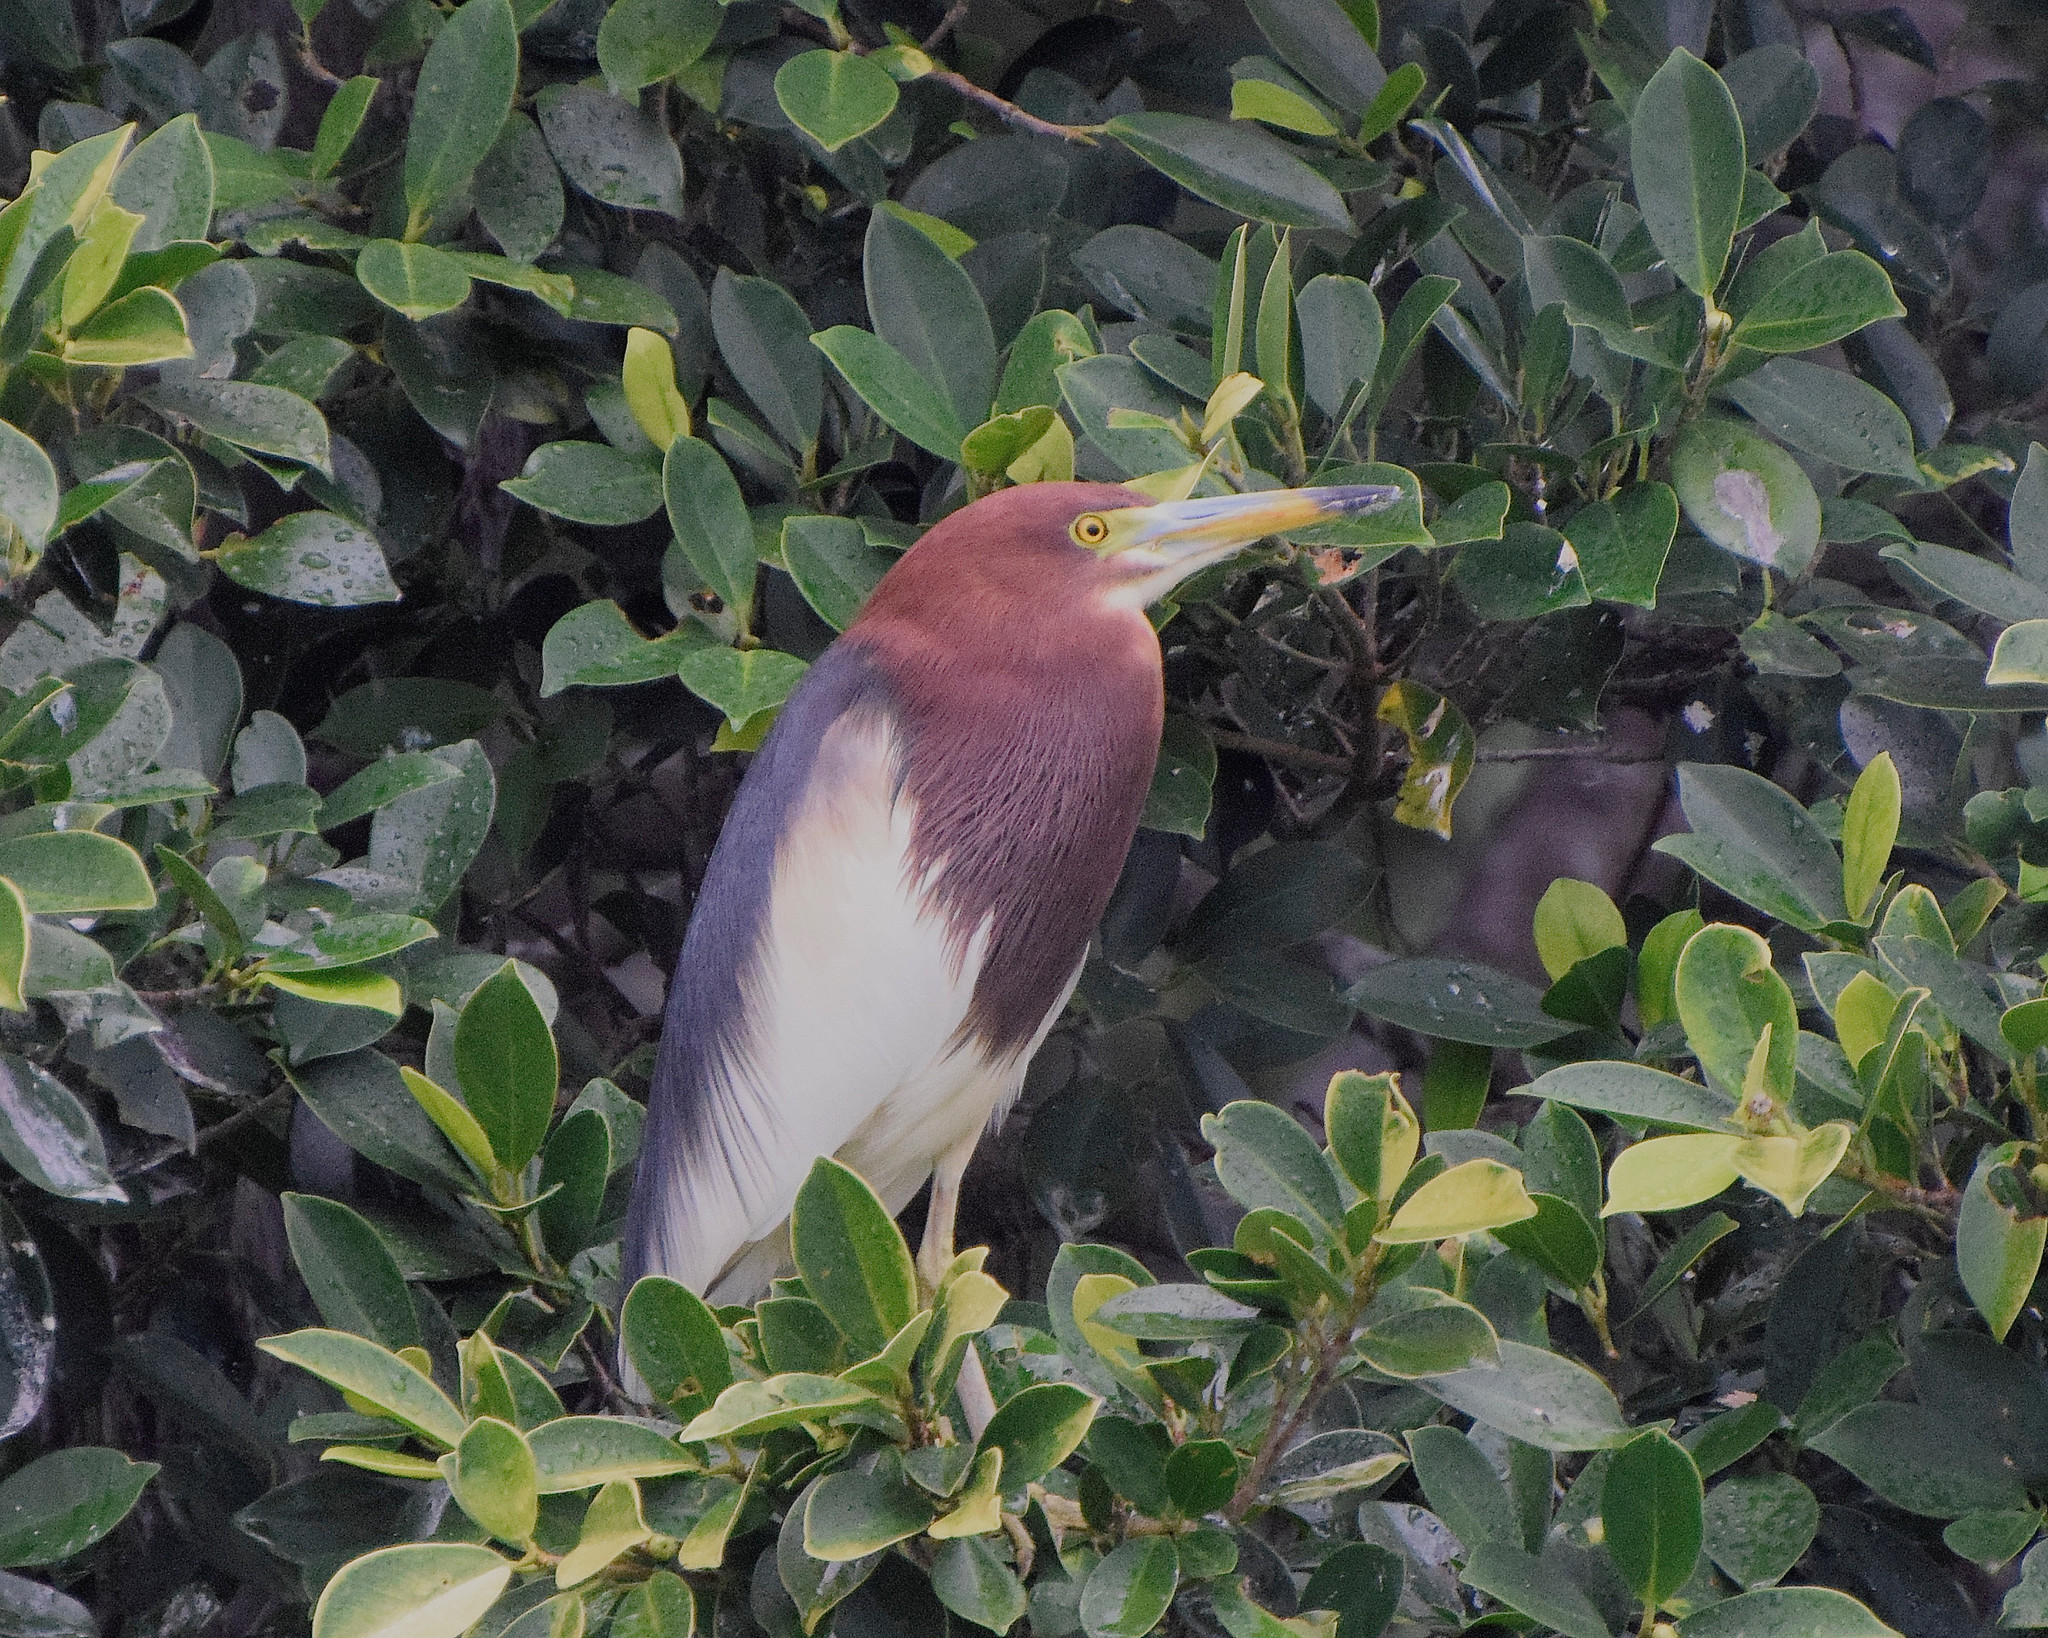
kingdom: Animalia
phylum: Chordata
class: Aves
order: Pelecaniformes
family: Ardeidae
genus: Ardeola
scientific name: Ardeola bacchus
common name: Chinese pond heron
